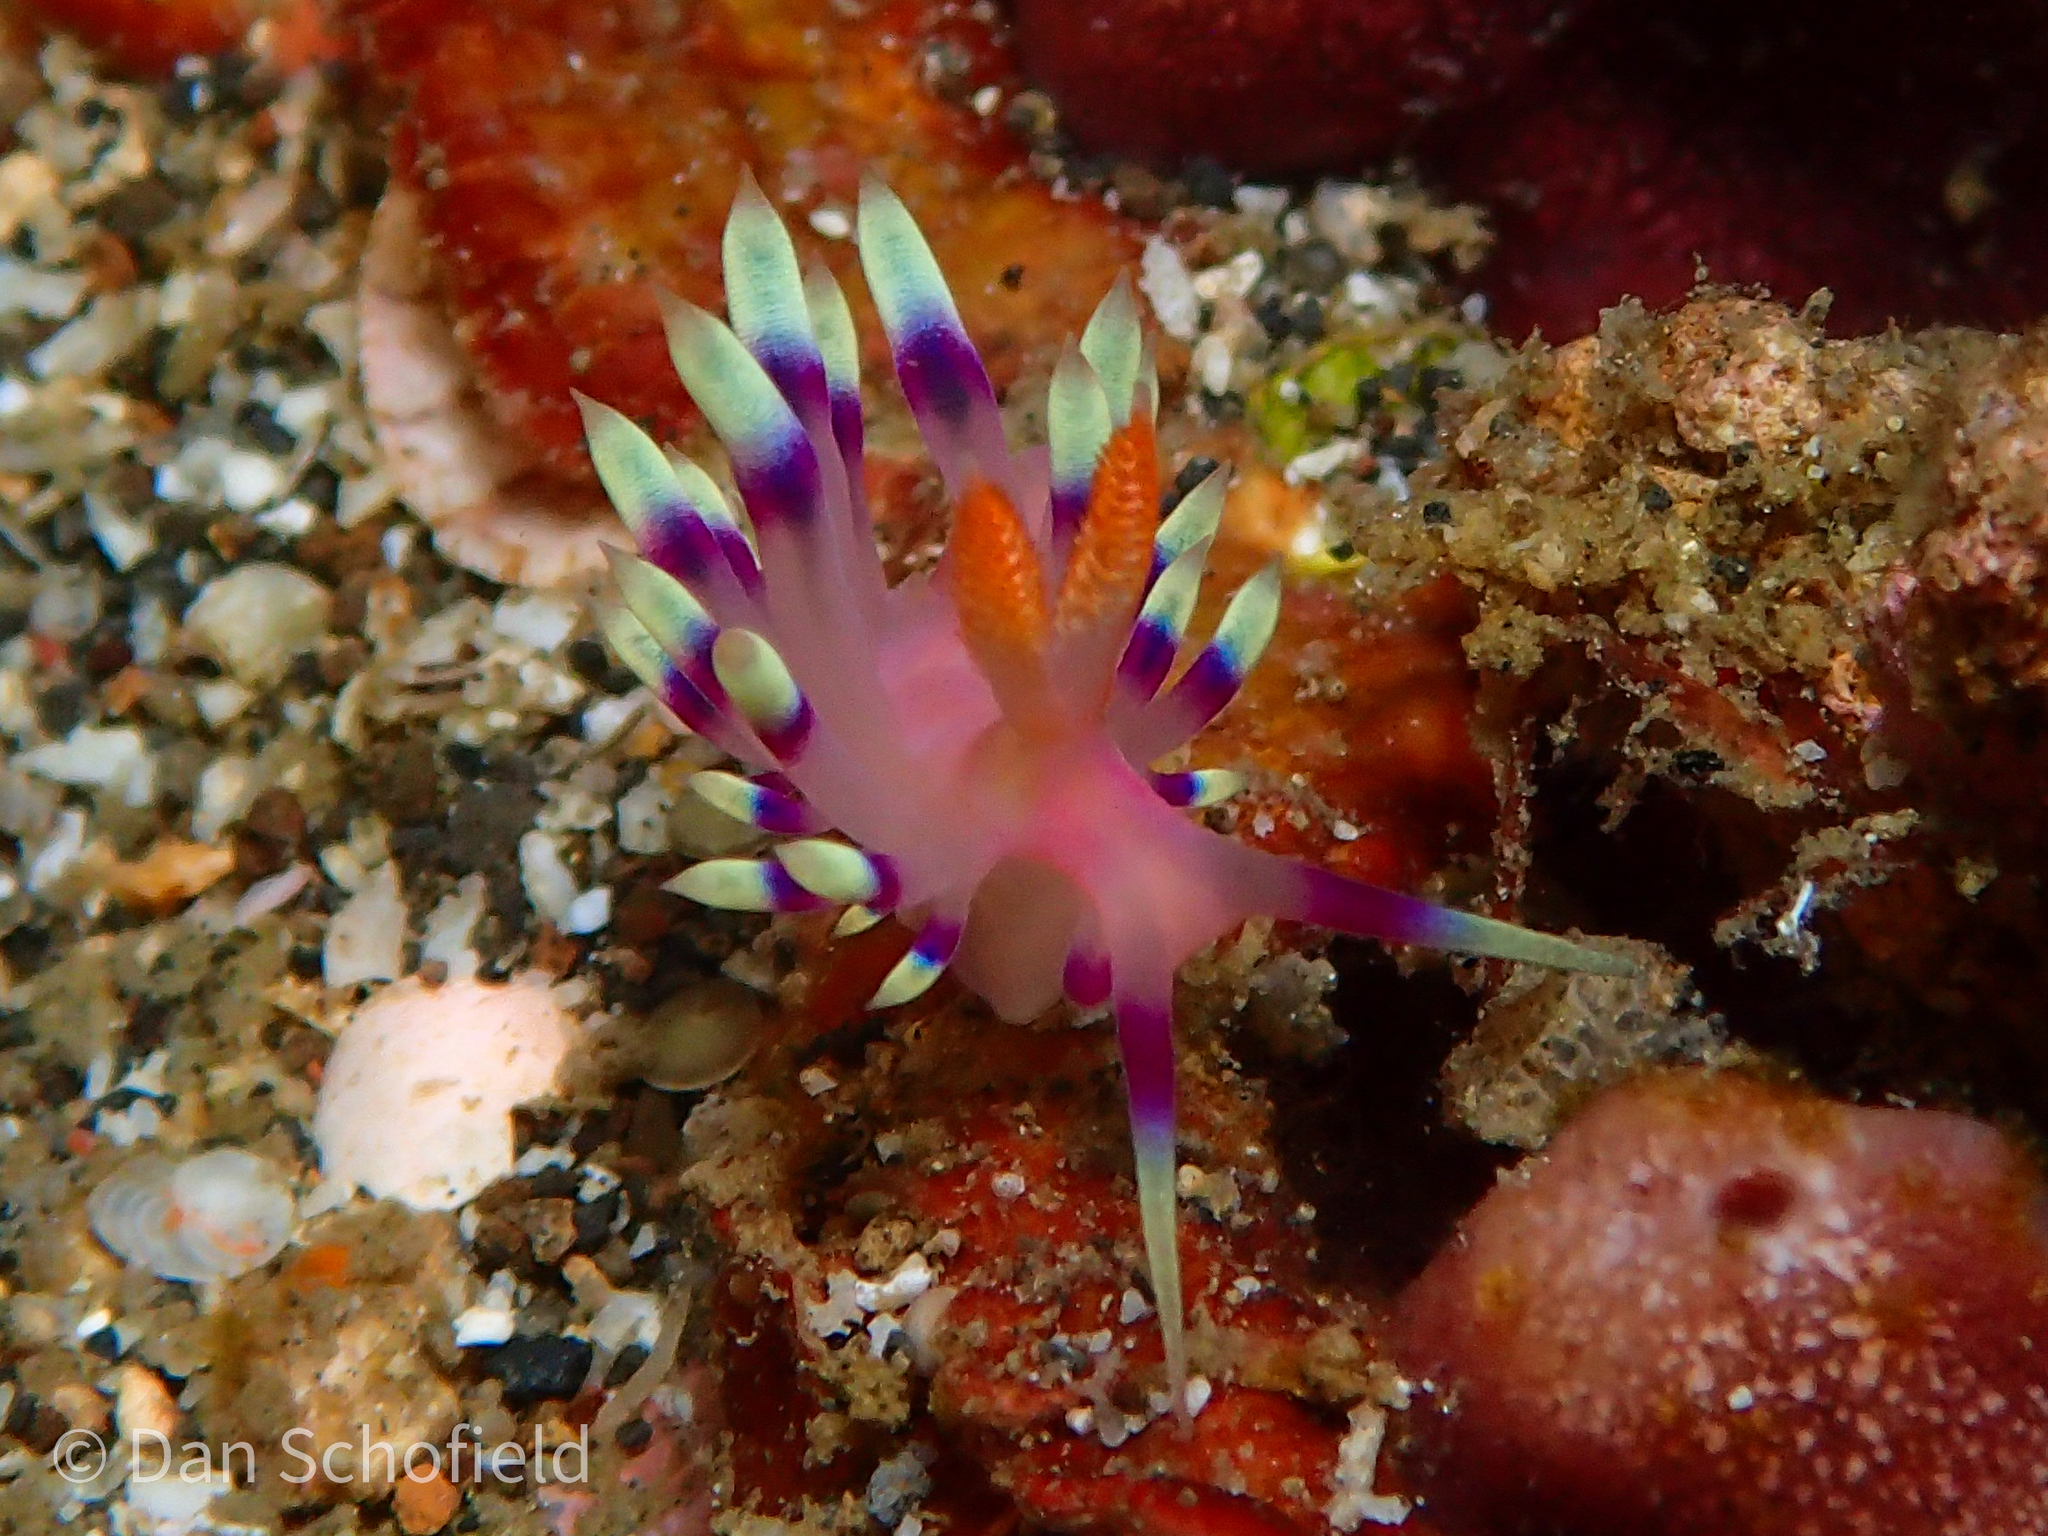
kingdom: Animalia
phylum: Mollusca
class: Gastropoda
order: Nudibranchia
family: Flabellinidae
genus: Coryphellina
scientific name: Coryphellina exoptata
